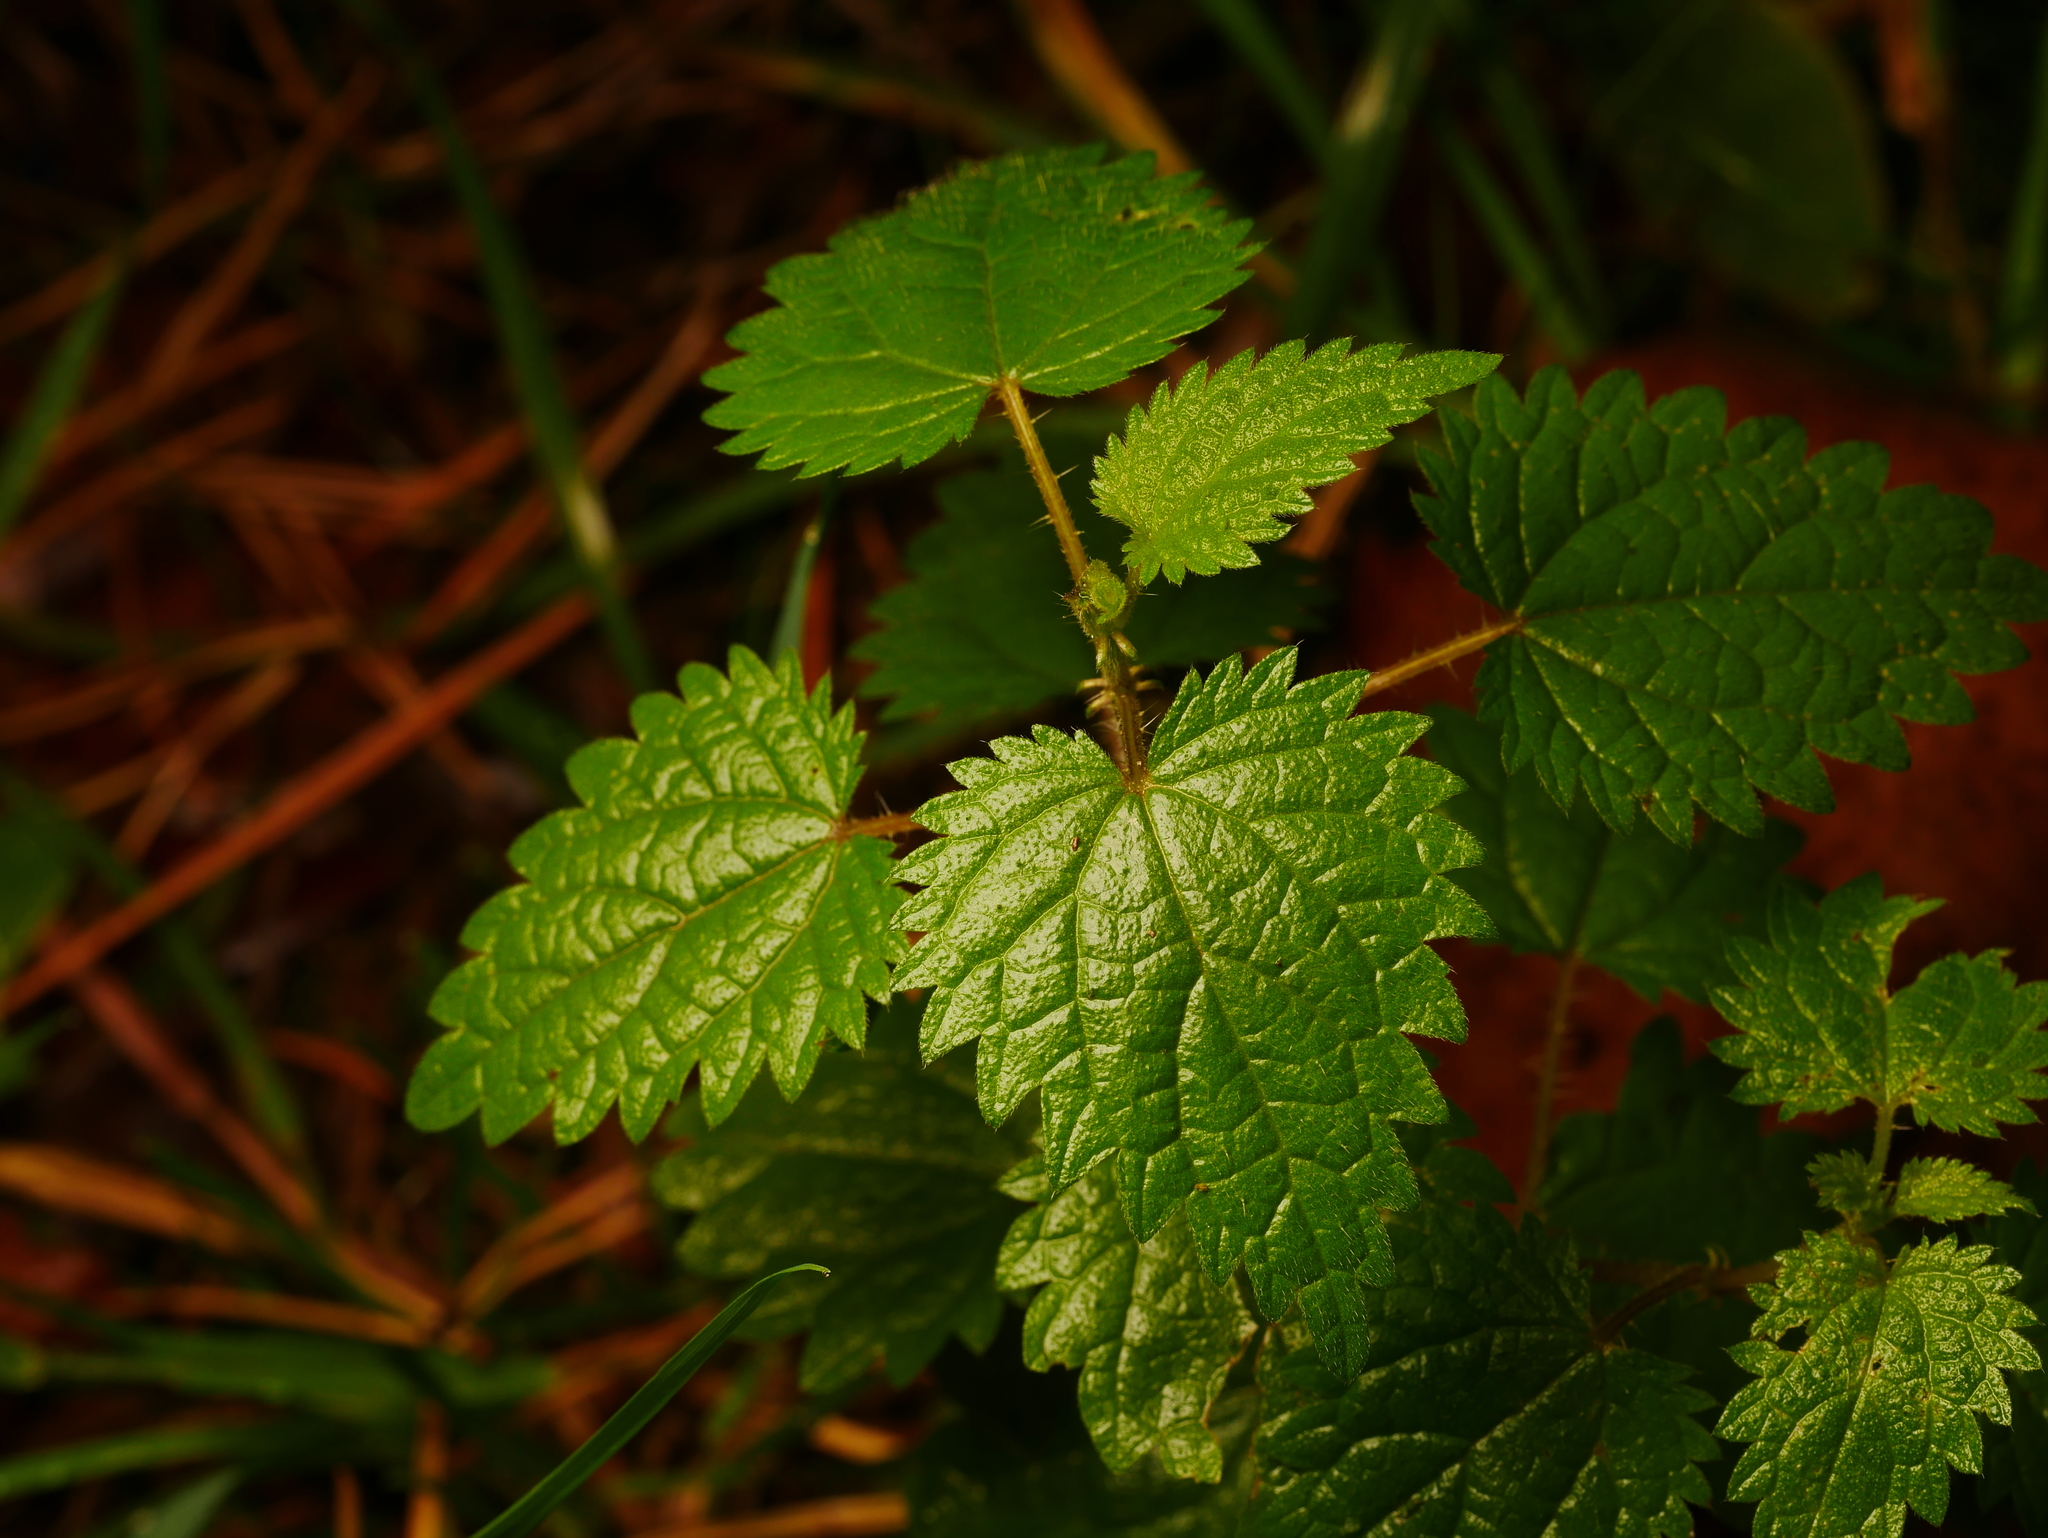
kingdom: Plantae
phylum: Tracheophyta
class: Magnoliopsida
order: Rosales
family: Urticaceae
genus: Urtica
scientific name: Urtica dioica
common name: Common nettle
